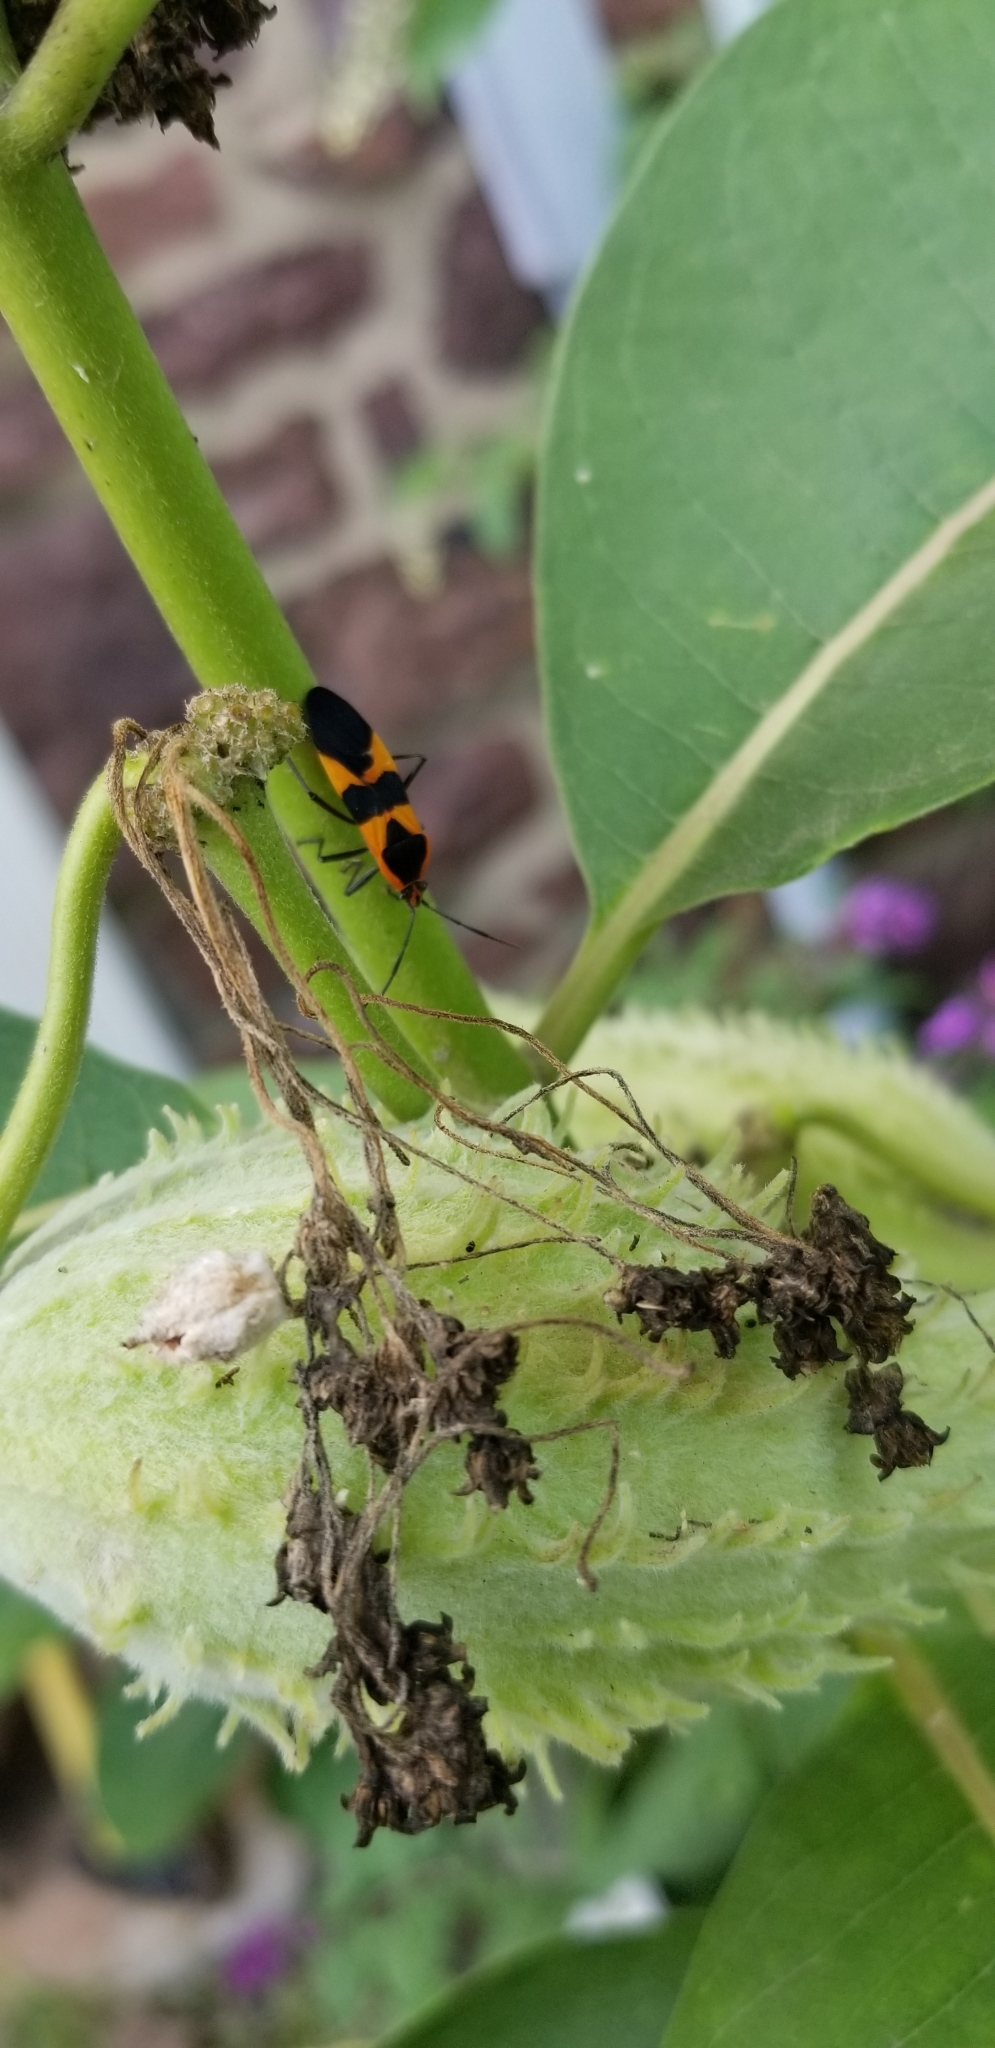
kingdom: Animalia
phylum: Arthropoda
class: Insecta
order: Hemiptera
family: Lygaeidae
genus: Oncopeltus
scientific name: Oncopeltus fasciatus
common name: Large milkweed bug
